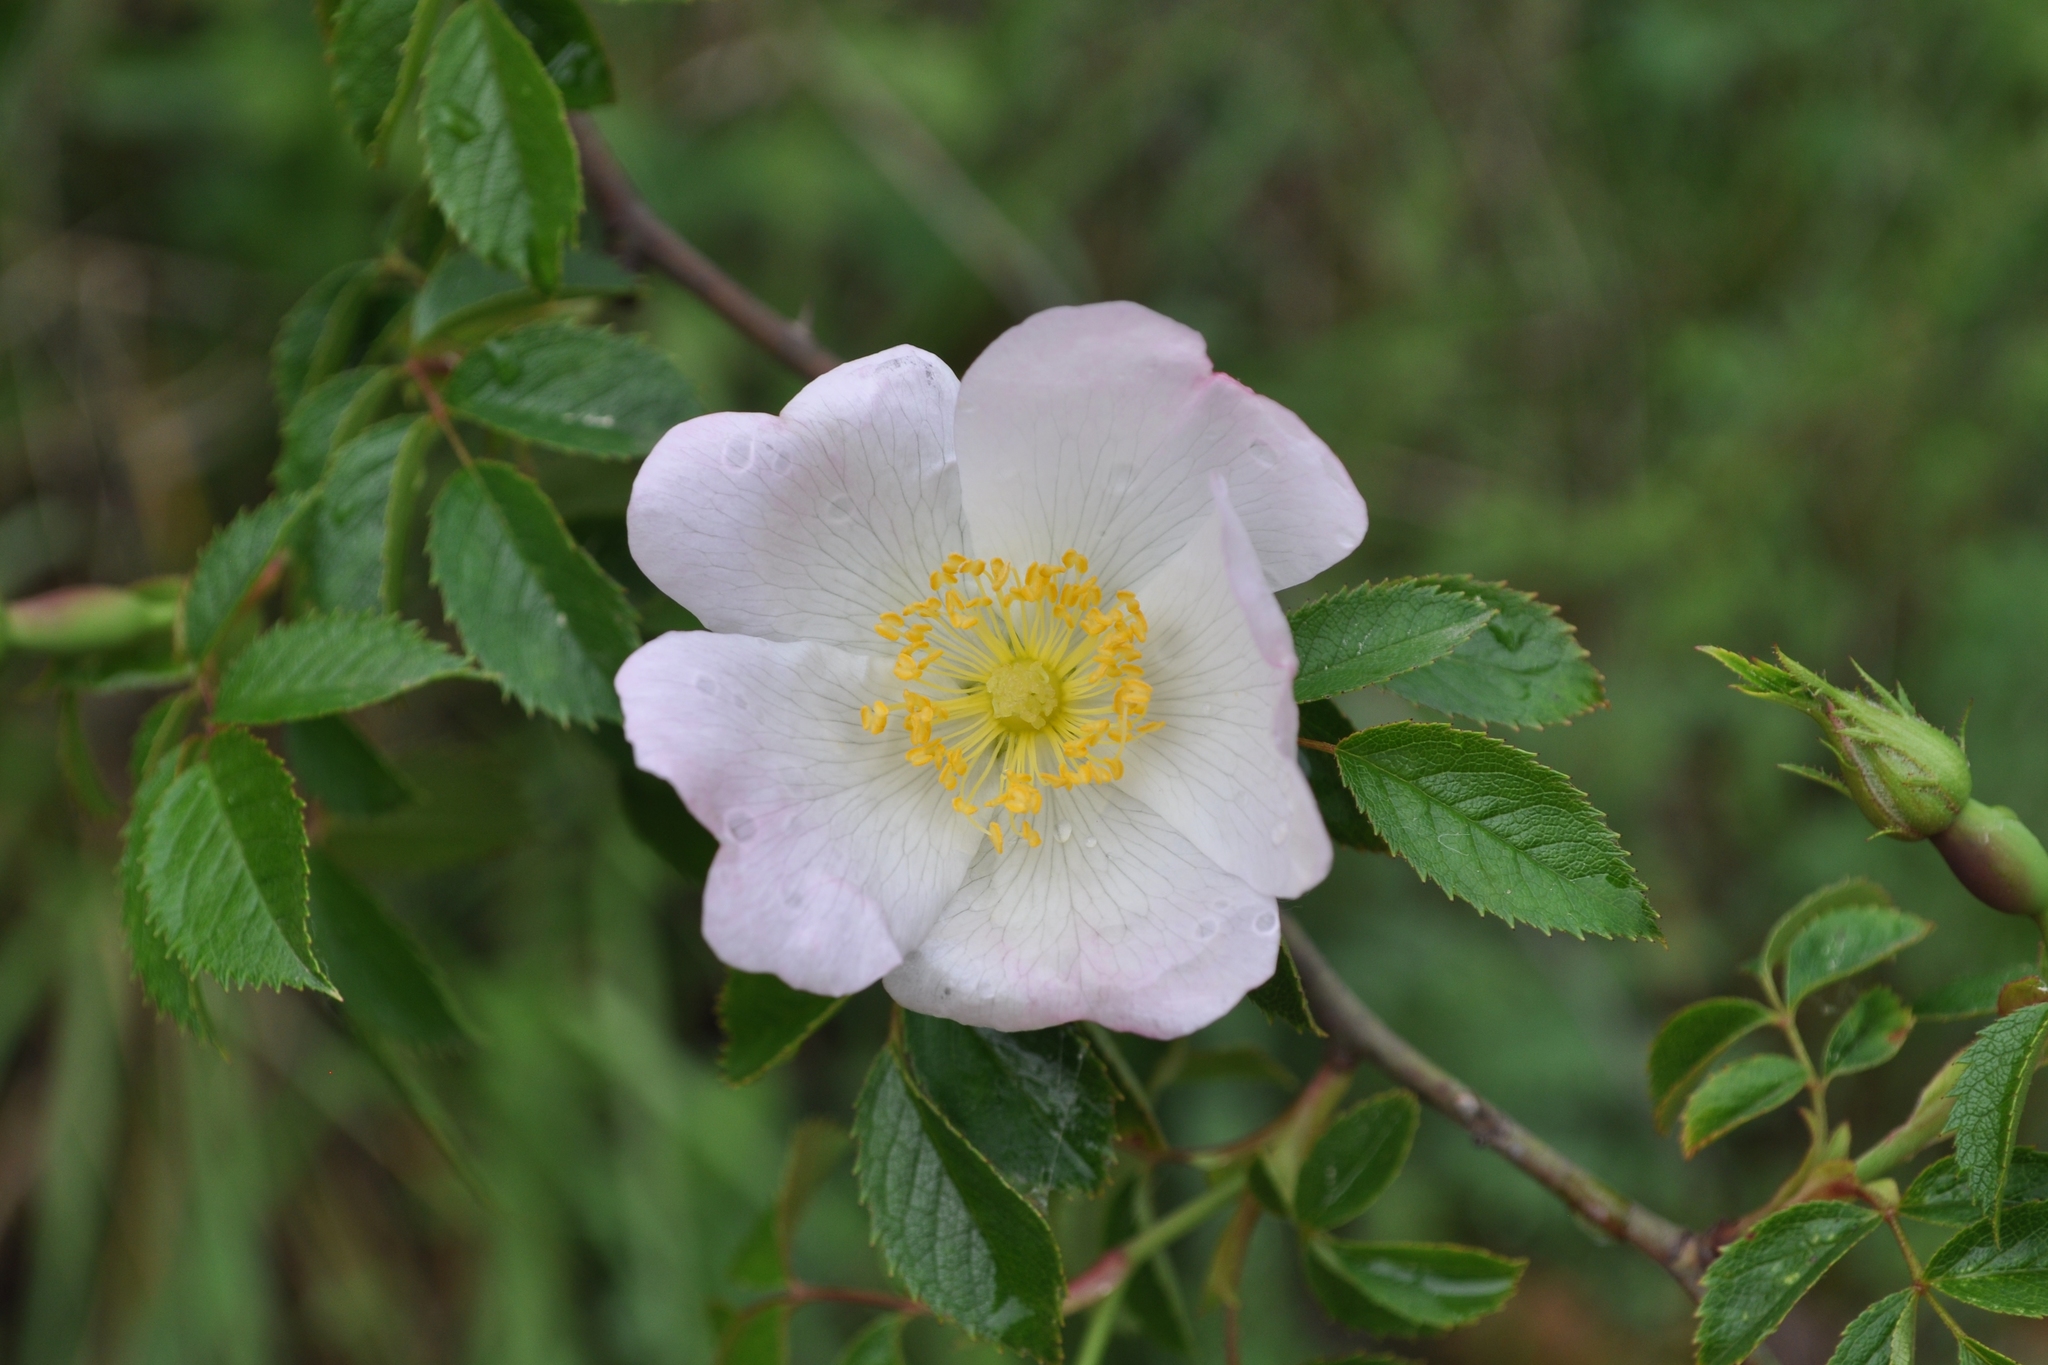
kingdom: Plantae
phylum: Tracheophyta
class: Magnoliopsida
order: Rosales
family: Rosaceae
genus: Rosa
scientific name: Rosa canina
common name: Dog rose
